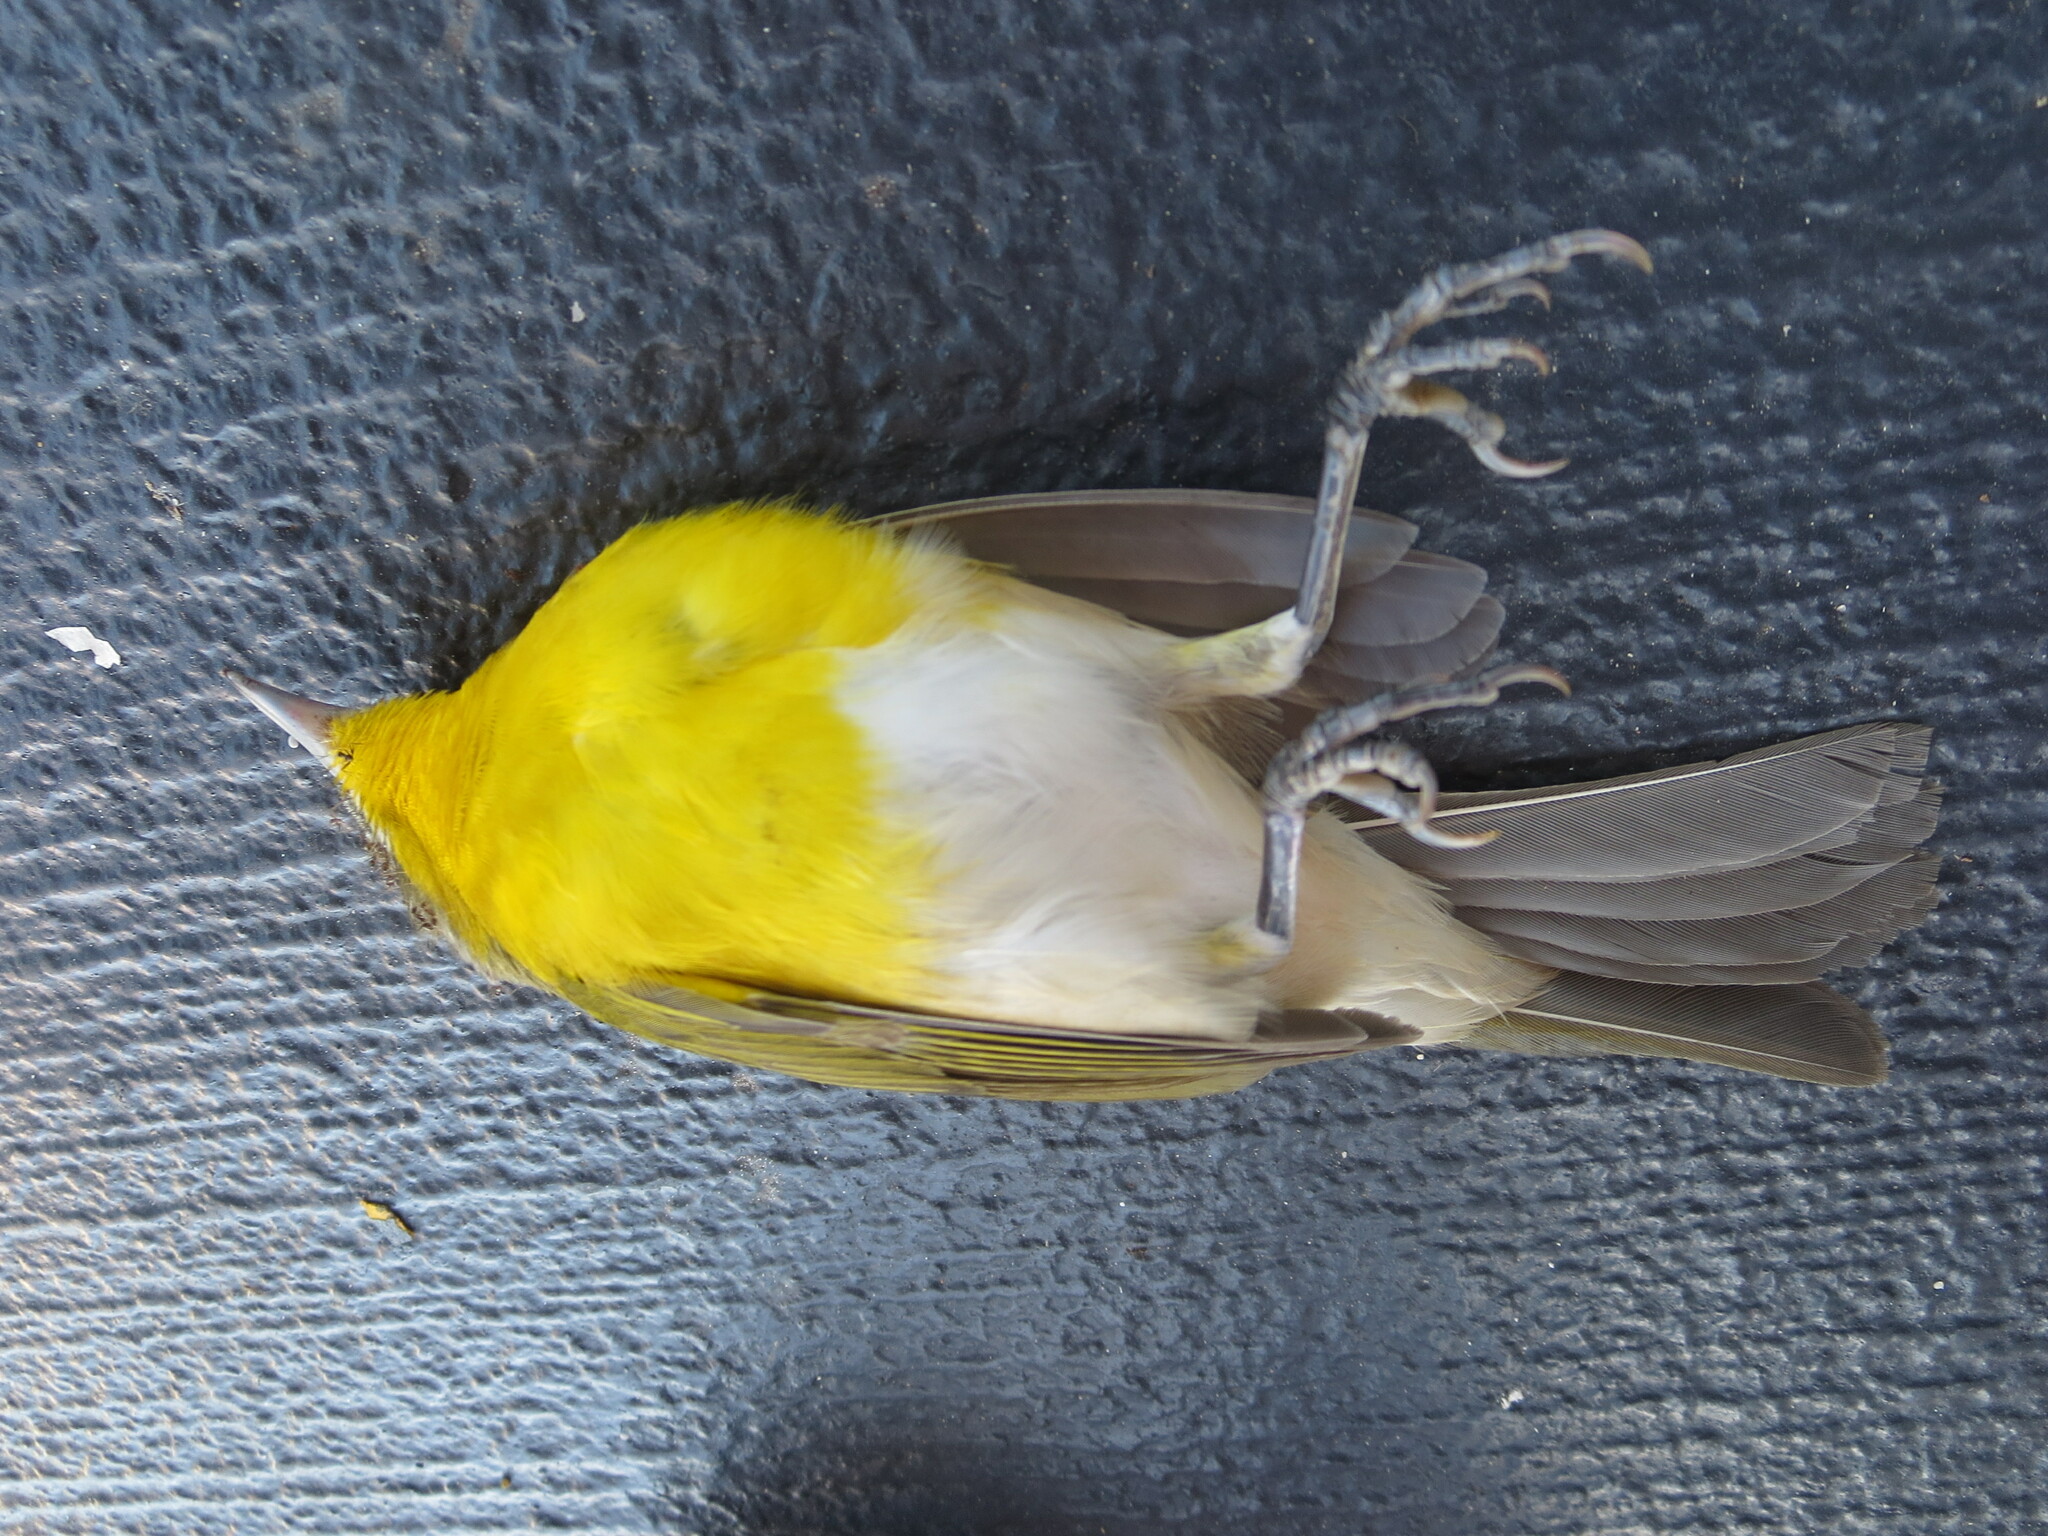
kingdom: Animalia
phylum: Chordata
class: Aves
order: Passeriformes
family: Parulidae
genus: Icteria
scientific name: Icteria virens
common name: Yellow-breasted chat
